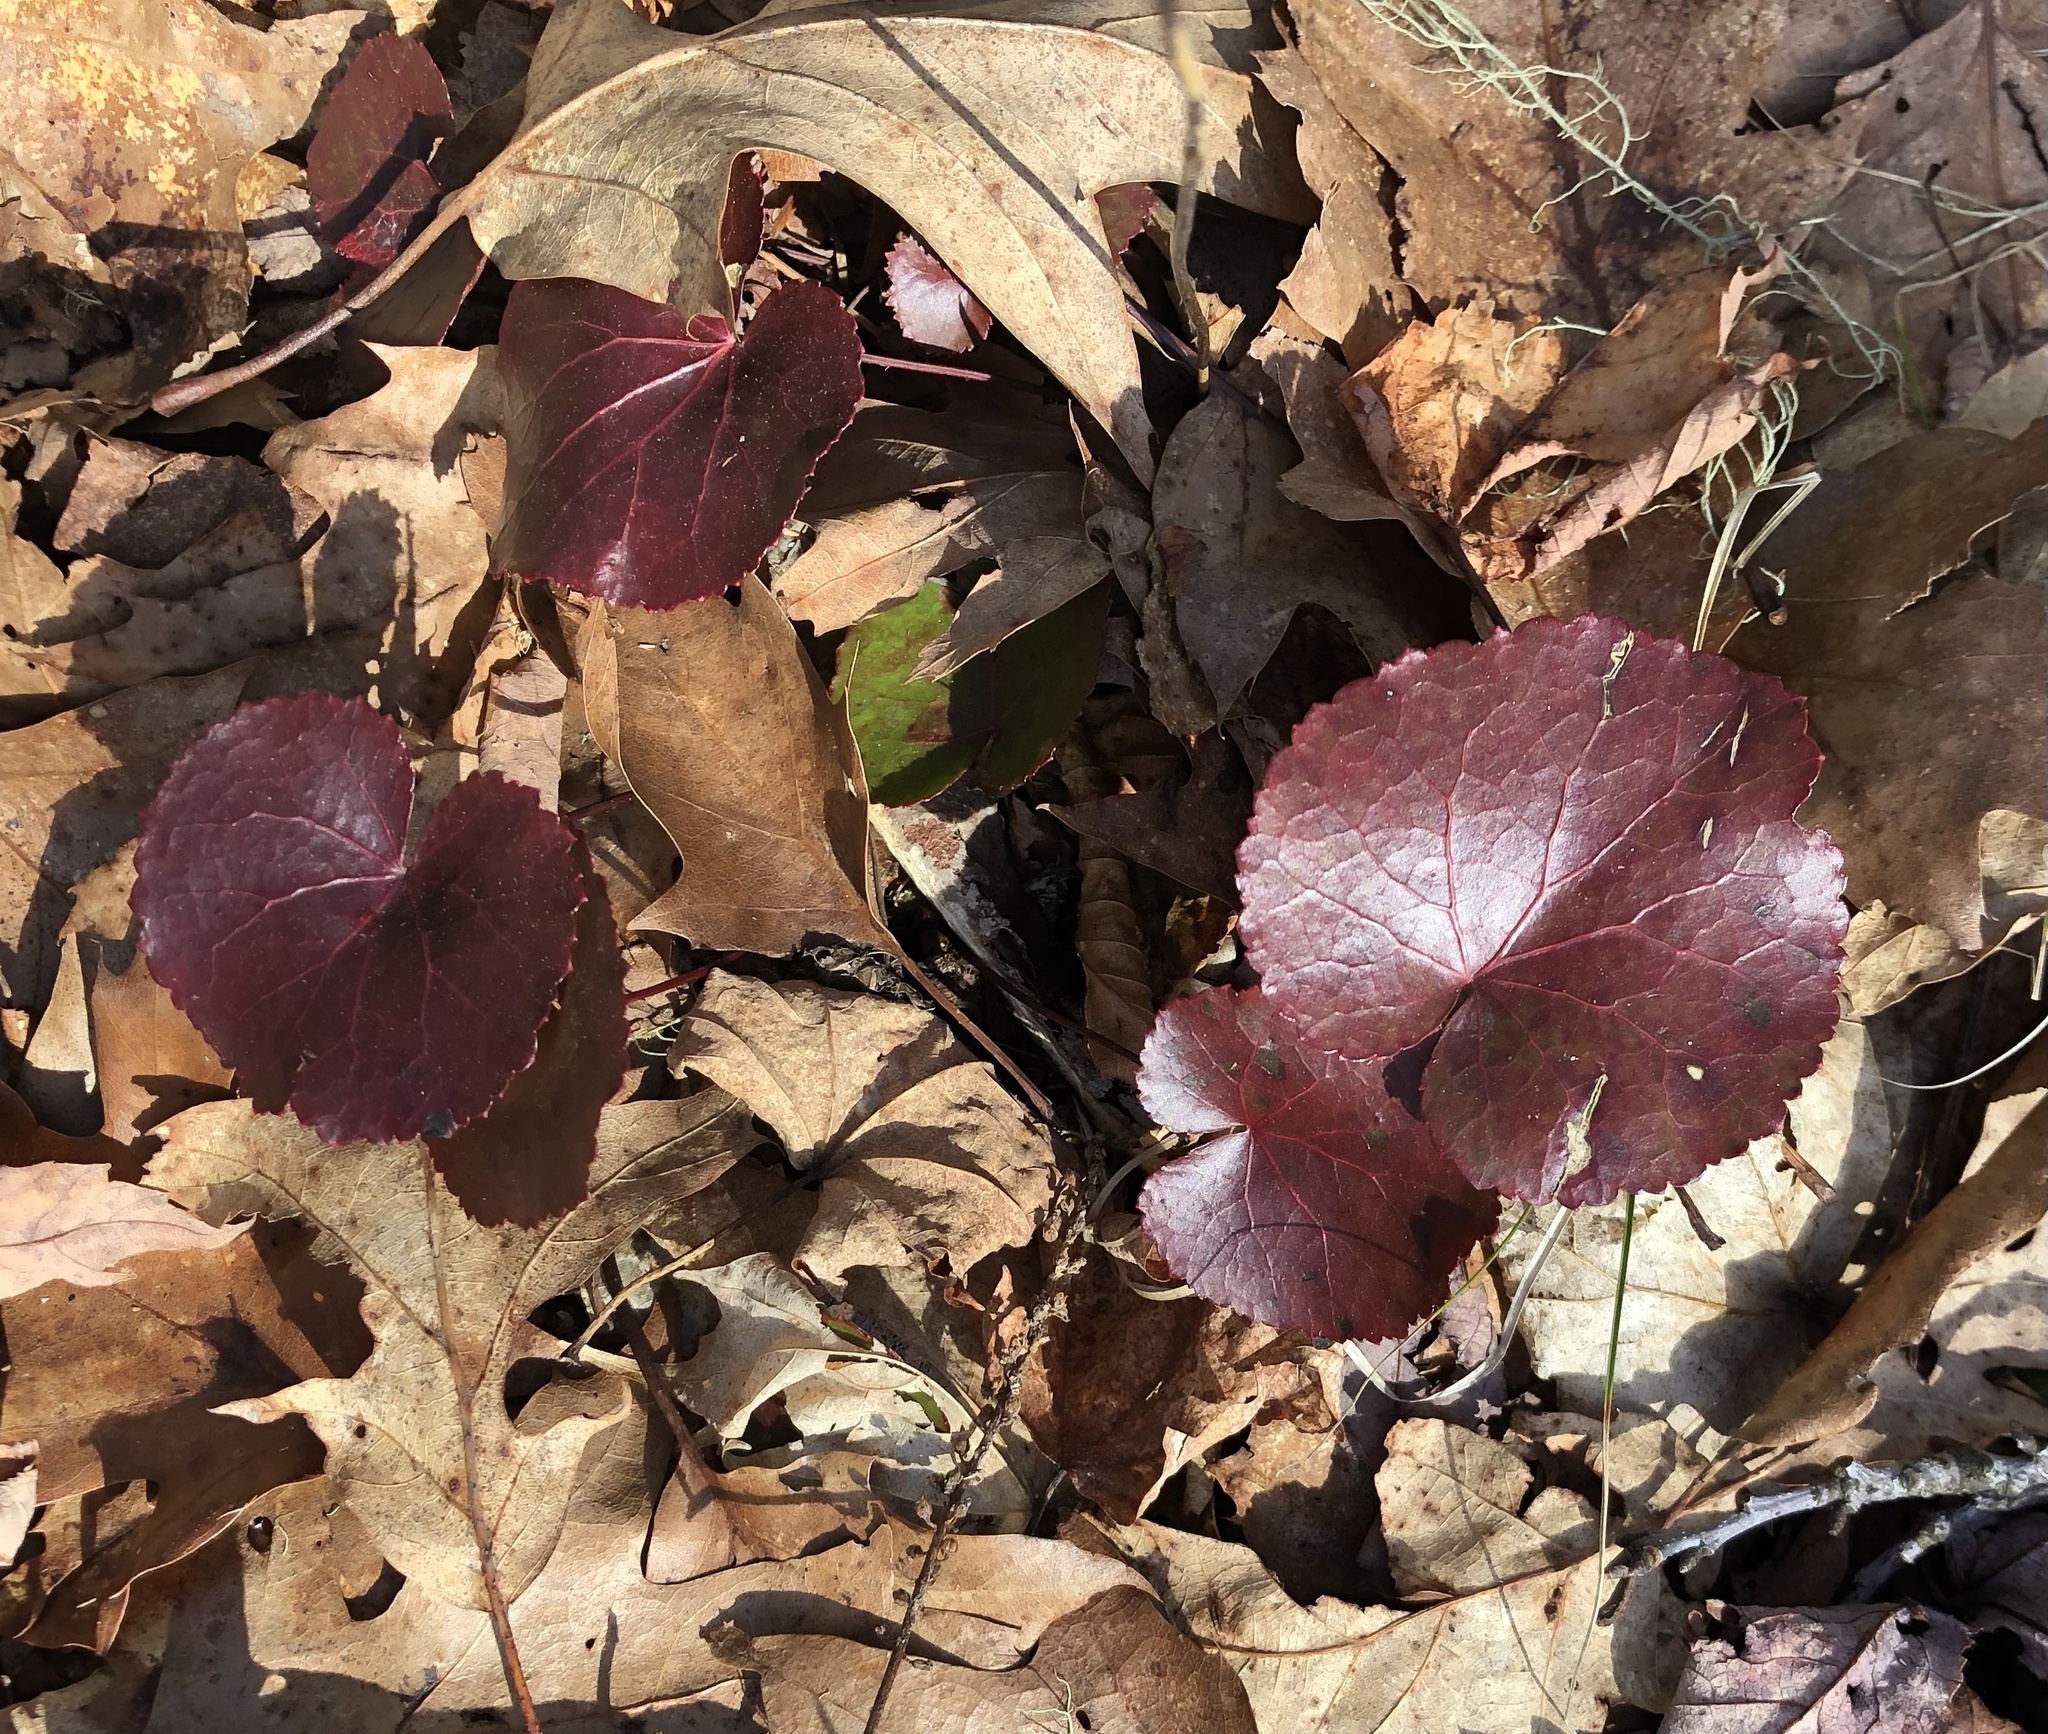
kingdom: Plantae
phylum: Tracheophyta
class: Magnoliopsida
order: Ericales
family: Diapensiaceae
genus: Galax
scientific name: Galax urceolata
